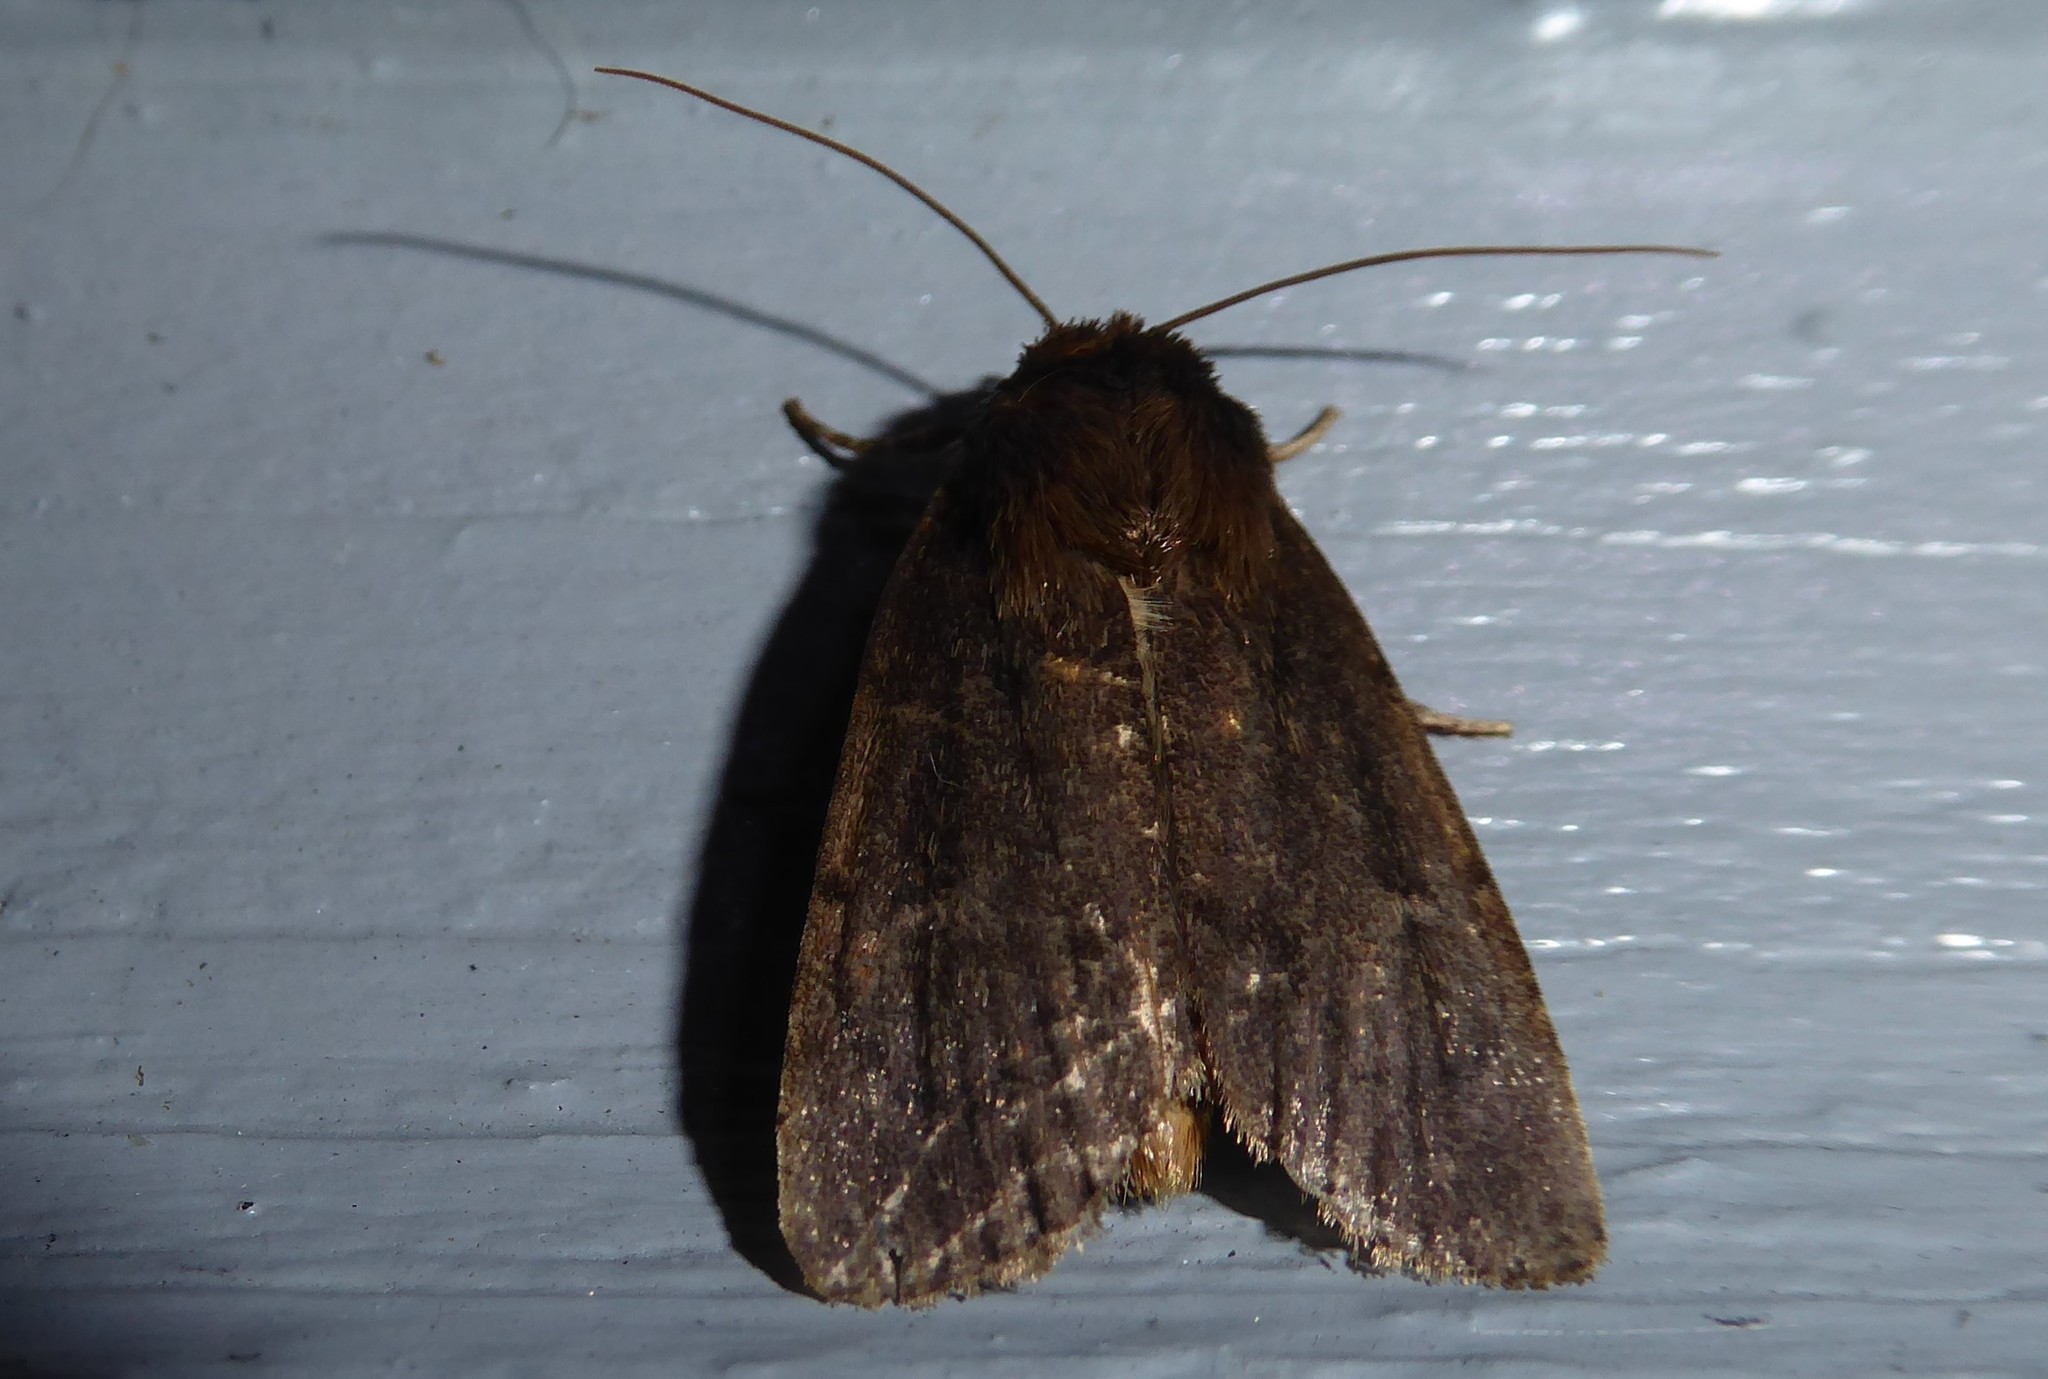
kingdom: Animalia
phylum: Arthropoda
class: Insecta
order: Lepidoptera
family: Noctuidae
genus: Bityla
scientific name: Bityla defigurata
